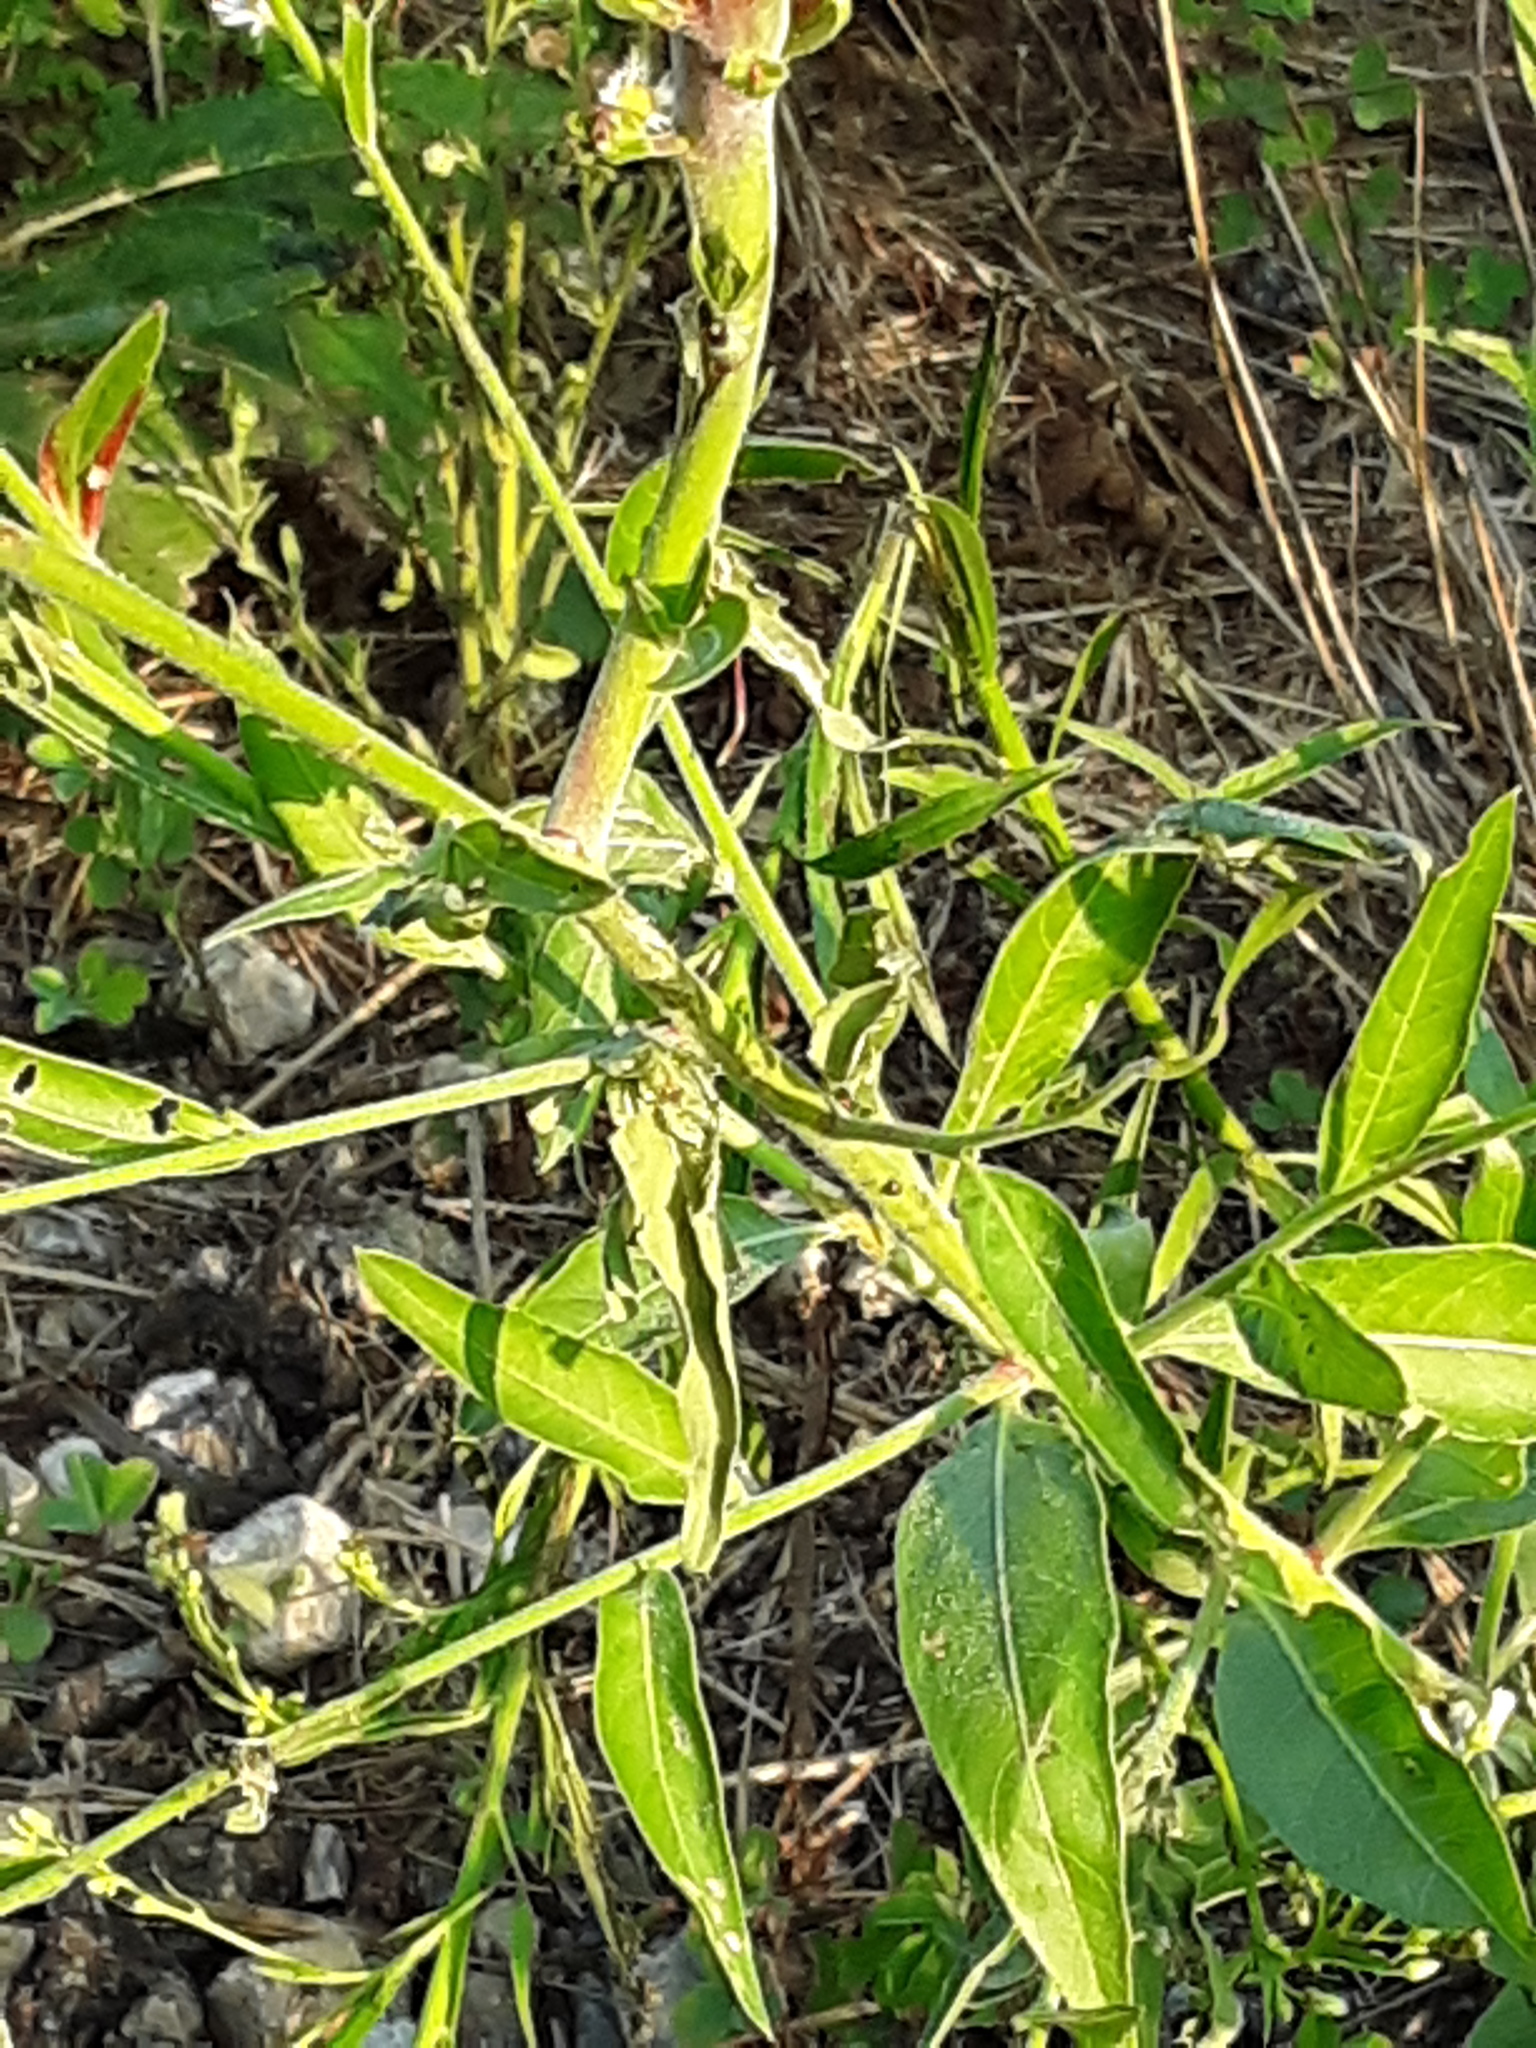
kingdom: Plantae
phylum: Tracheophyta
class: Magnoliopsida
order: Myrtales
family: Onagraceae
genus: Oenothera
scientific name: Oenothera filiformis
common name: Longflower beeblossom
